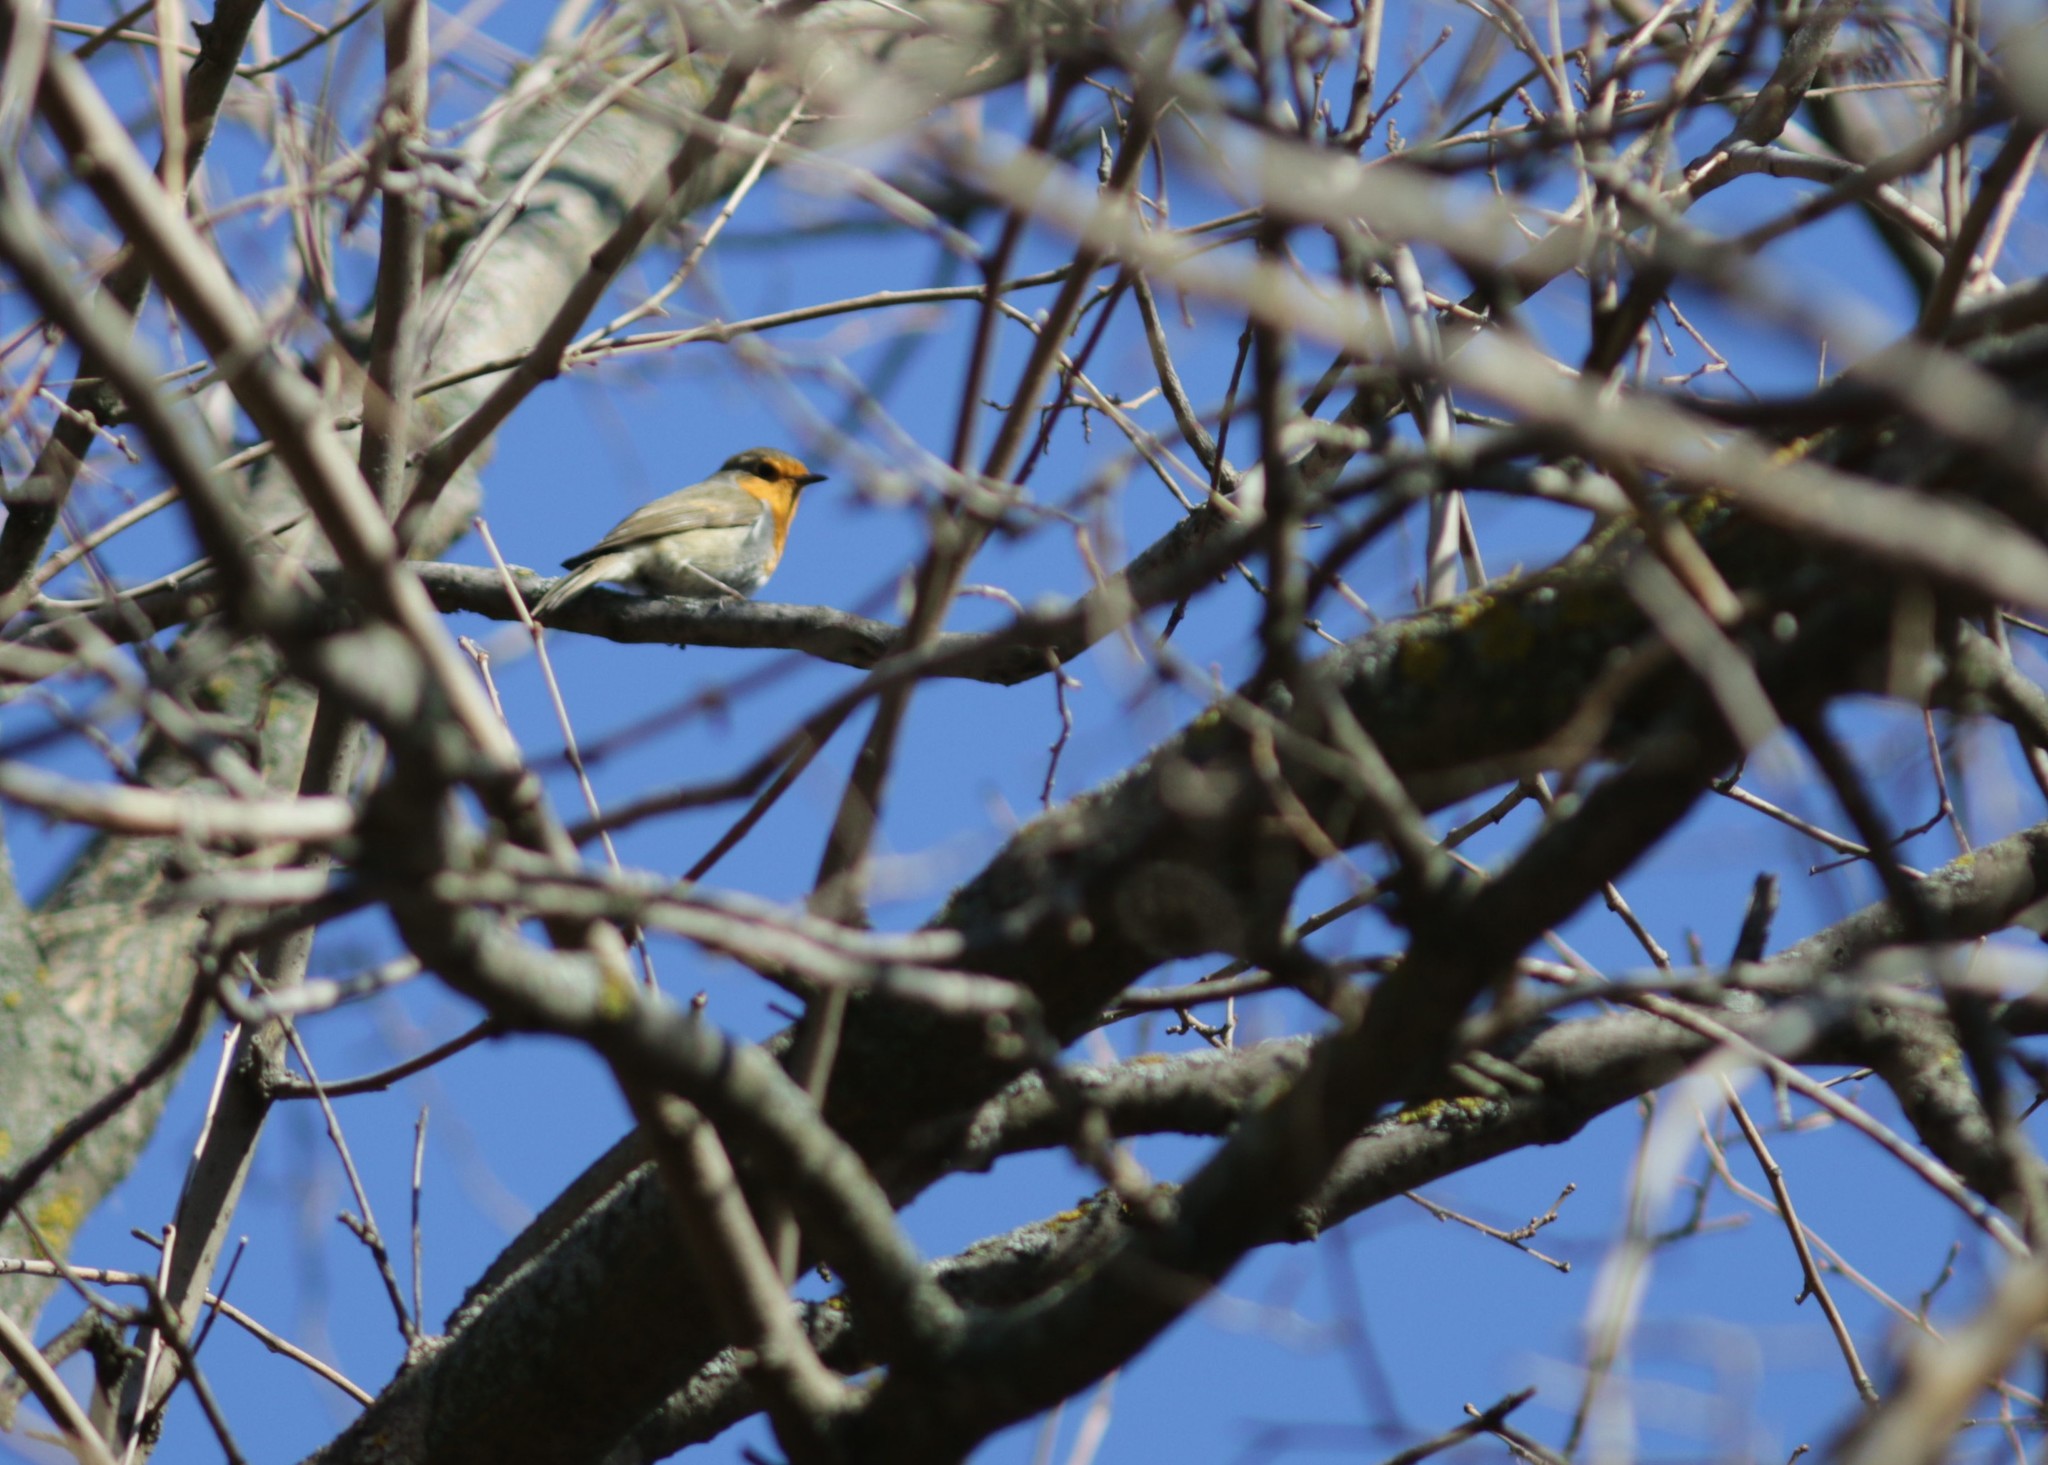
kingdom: Animalia
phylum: Chordata
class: Aves
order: Passeriformes
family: Muscicapidae
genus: Erithacus
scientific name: Erithacus rubecula
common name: European robin
